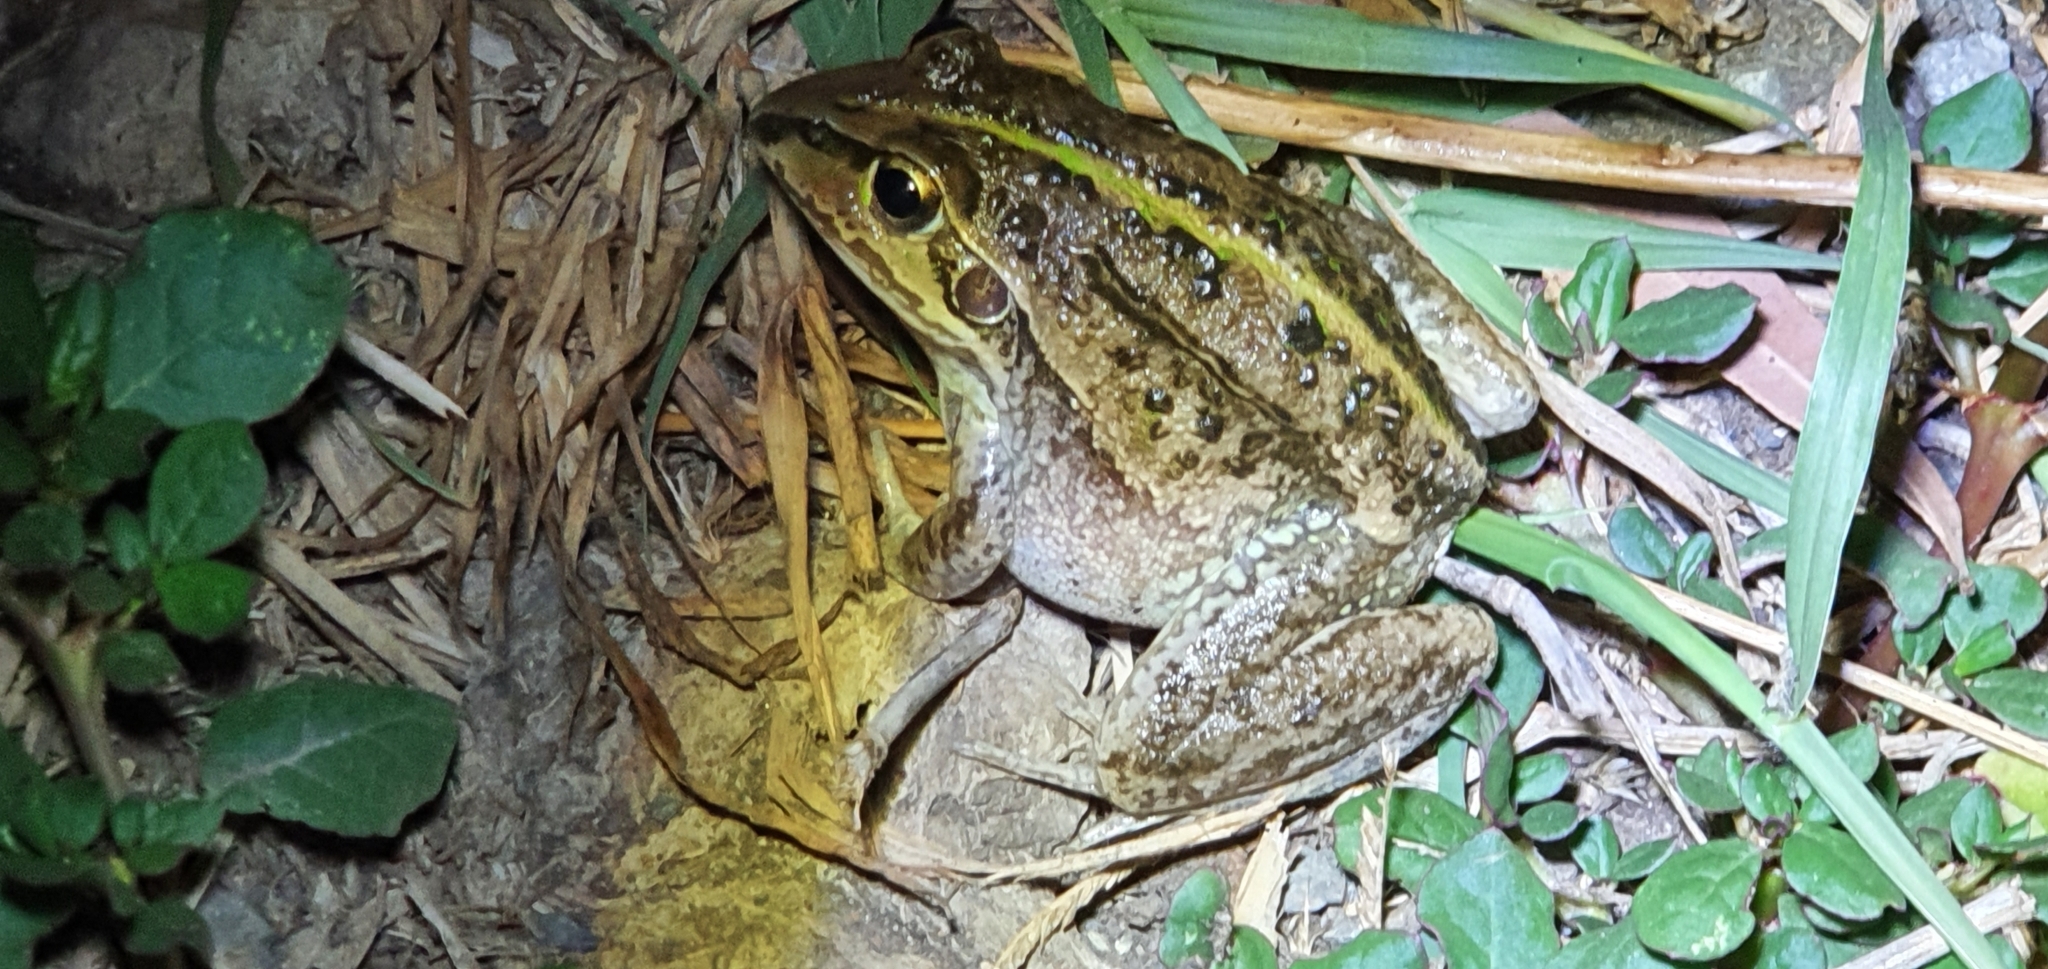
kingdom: Animalia
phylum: Chordata
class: Amphibia
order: Anura
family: Pelodryadidae
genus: Ranoidea
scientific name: Ranoidea alboguttata
